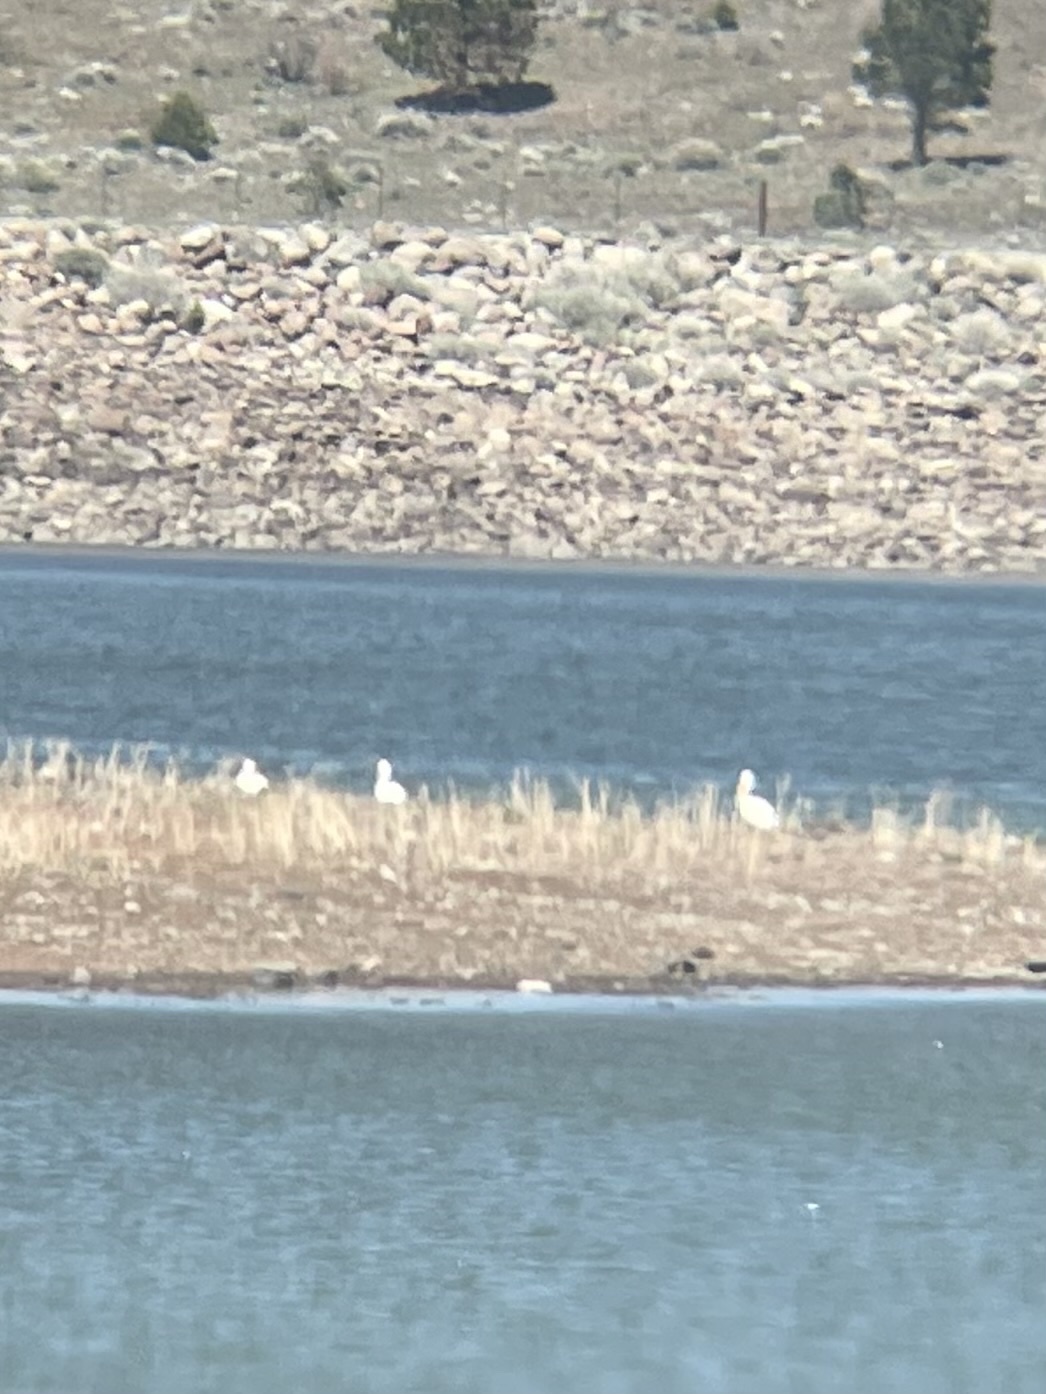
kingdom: Animalia
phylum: Chordata
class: Aves
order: Pelecaniformes
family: Pelecanidae
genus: Pelecanus
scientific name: Pelecanus erythrorhynchos
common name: American white pelican
